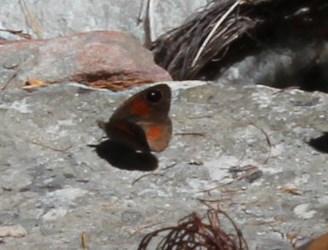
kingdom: Animalia
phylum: Arthropoda
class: Insecta
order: Lepidoptera
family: Nymphalidae
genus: Stygionympha
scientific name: Stygionympha vigilans
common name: Western hillside brown
